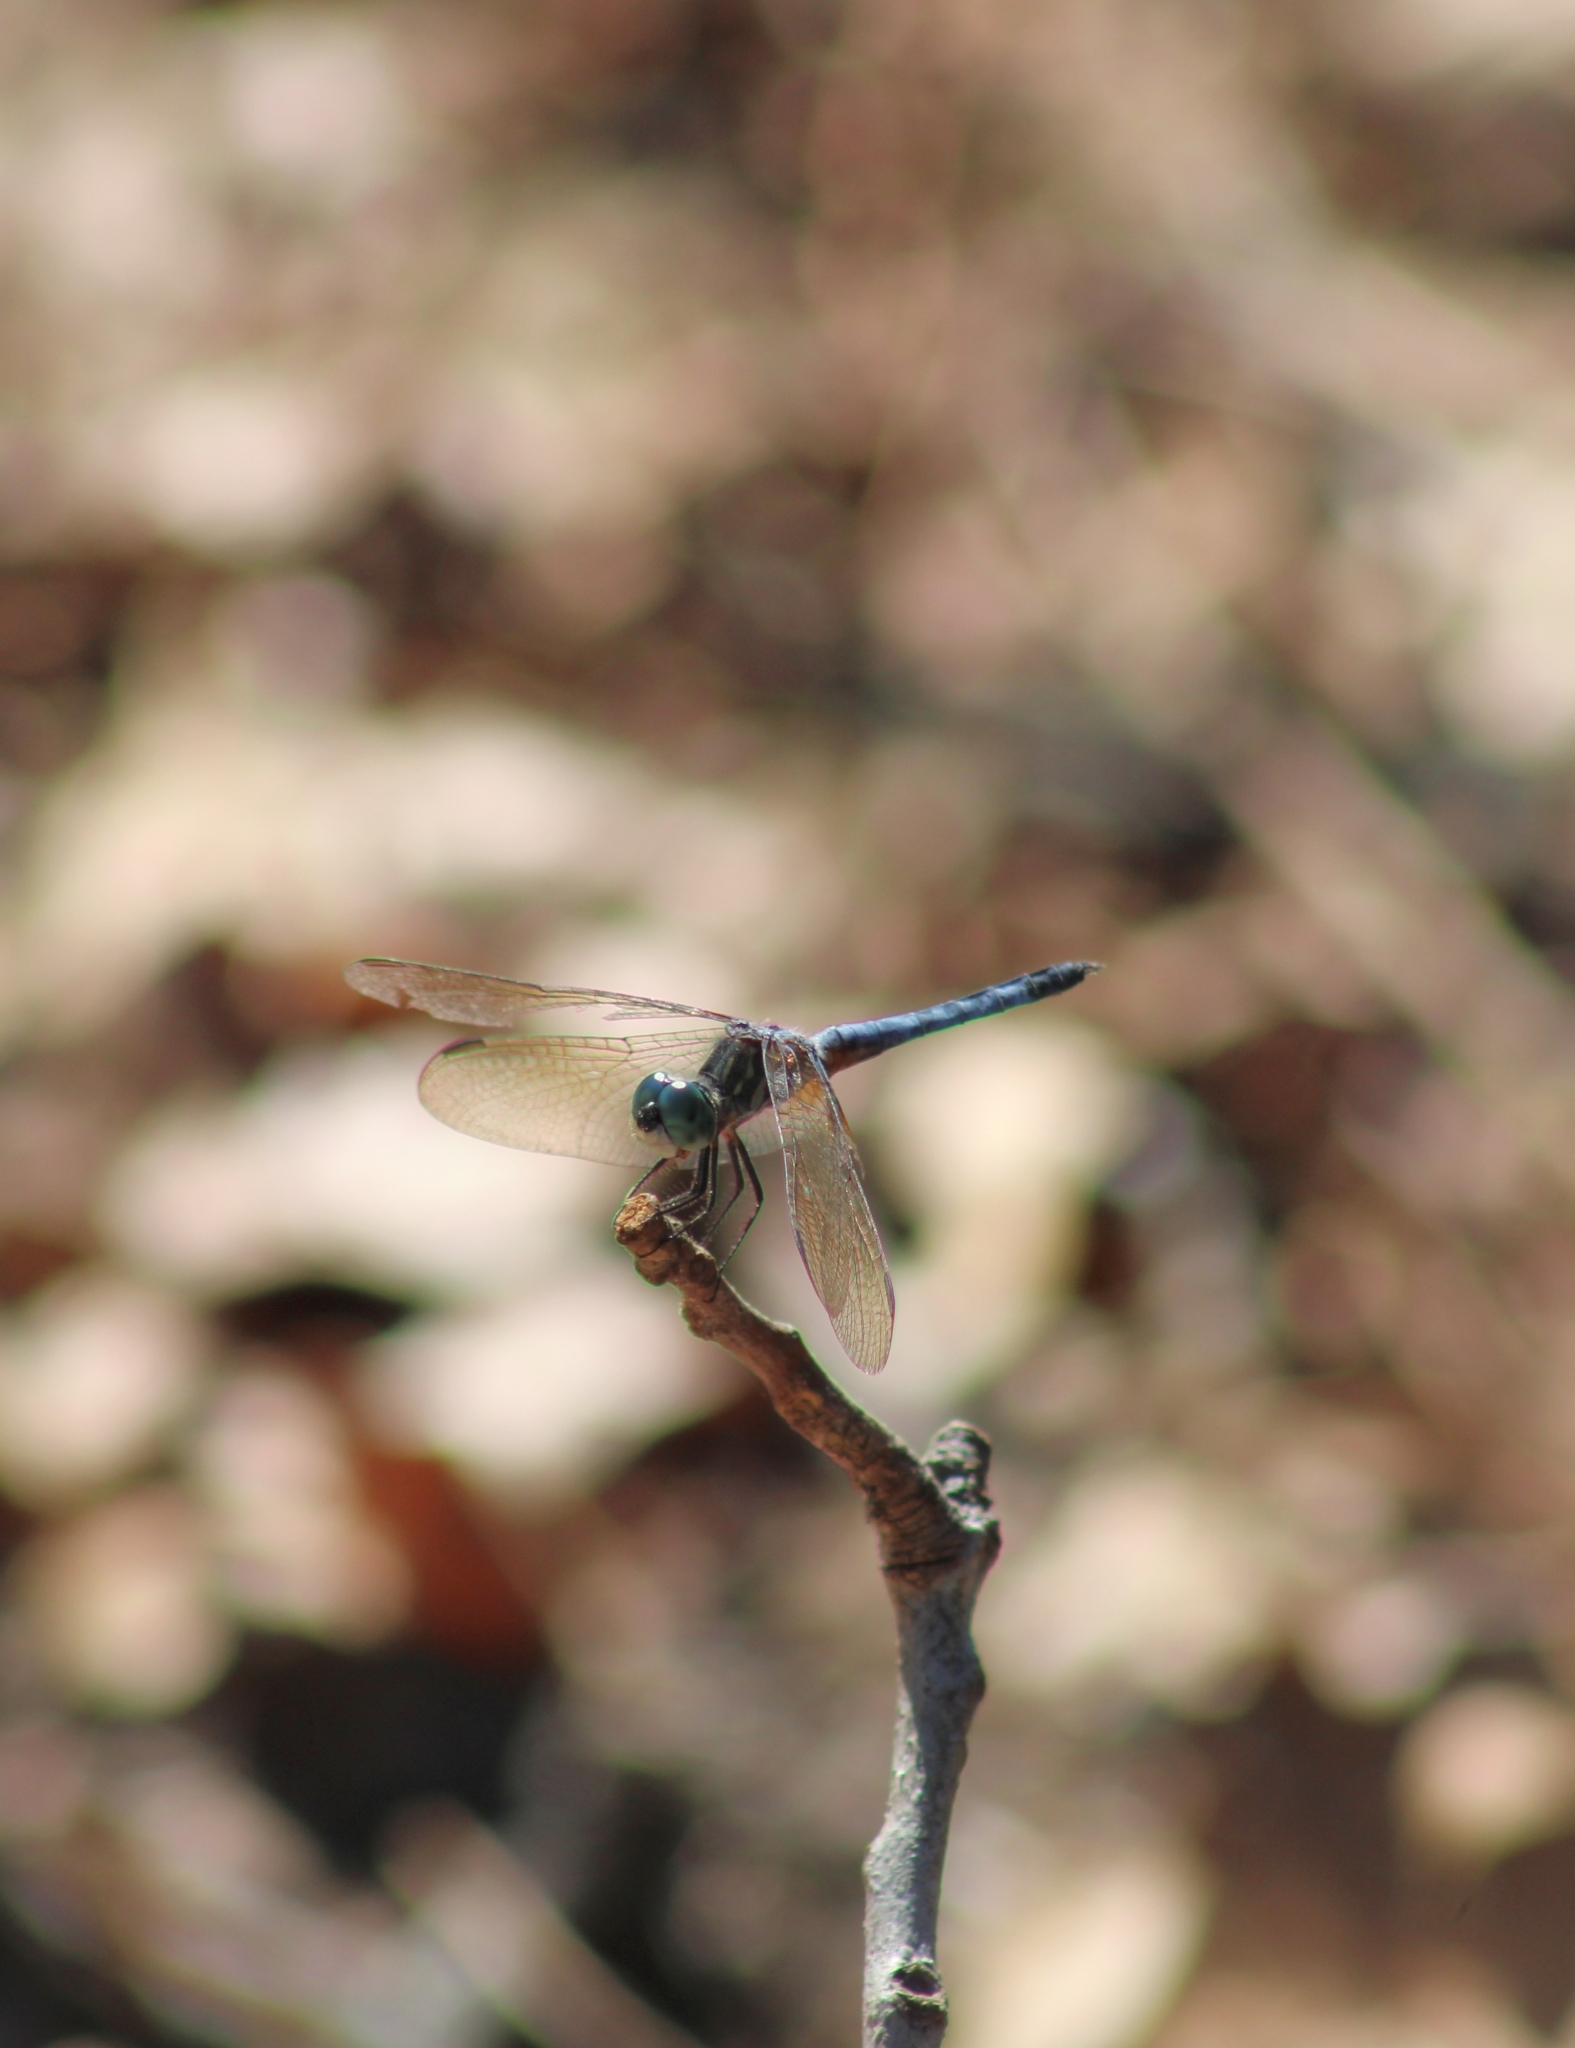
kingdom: Animalia
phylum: Arthropoda
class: Insecta
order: Odonata
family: Libellulidae
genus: Pachydiplax
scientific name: Pachydiplax longipennis
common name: Blue dasher
